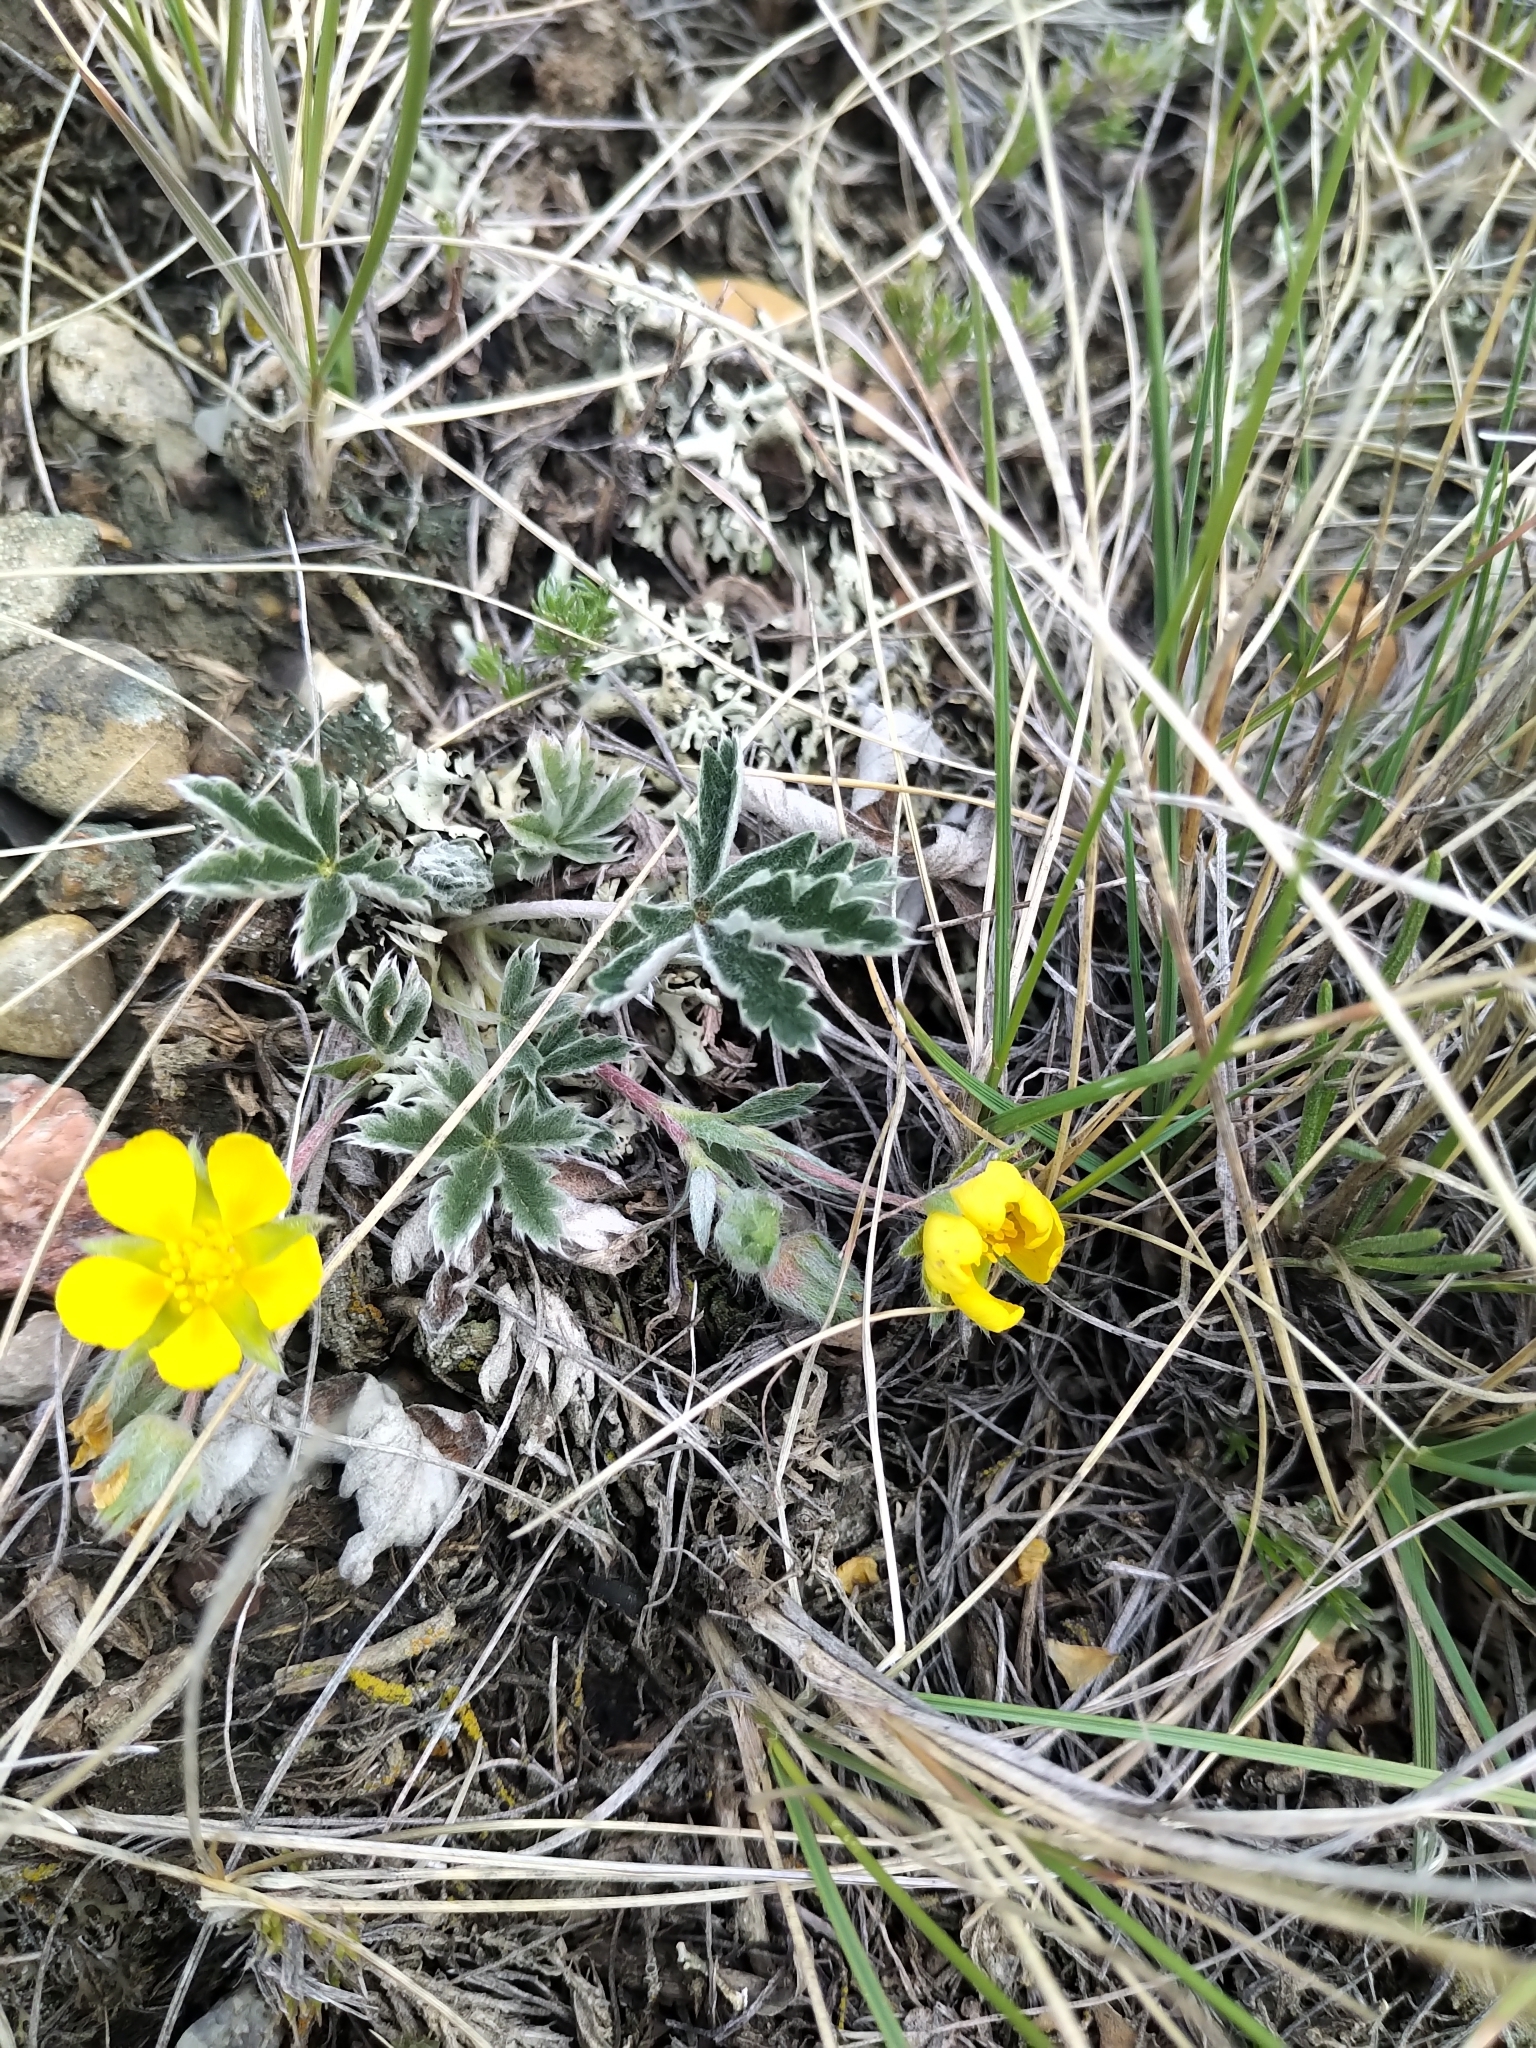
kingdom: Plantae
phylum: Tracheophyta
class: Magnoliopsida
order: Rosales
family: Rosaceae
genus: Potentilla
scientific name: Potentilla concinna
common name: Early cinquefoil
